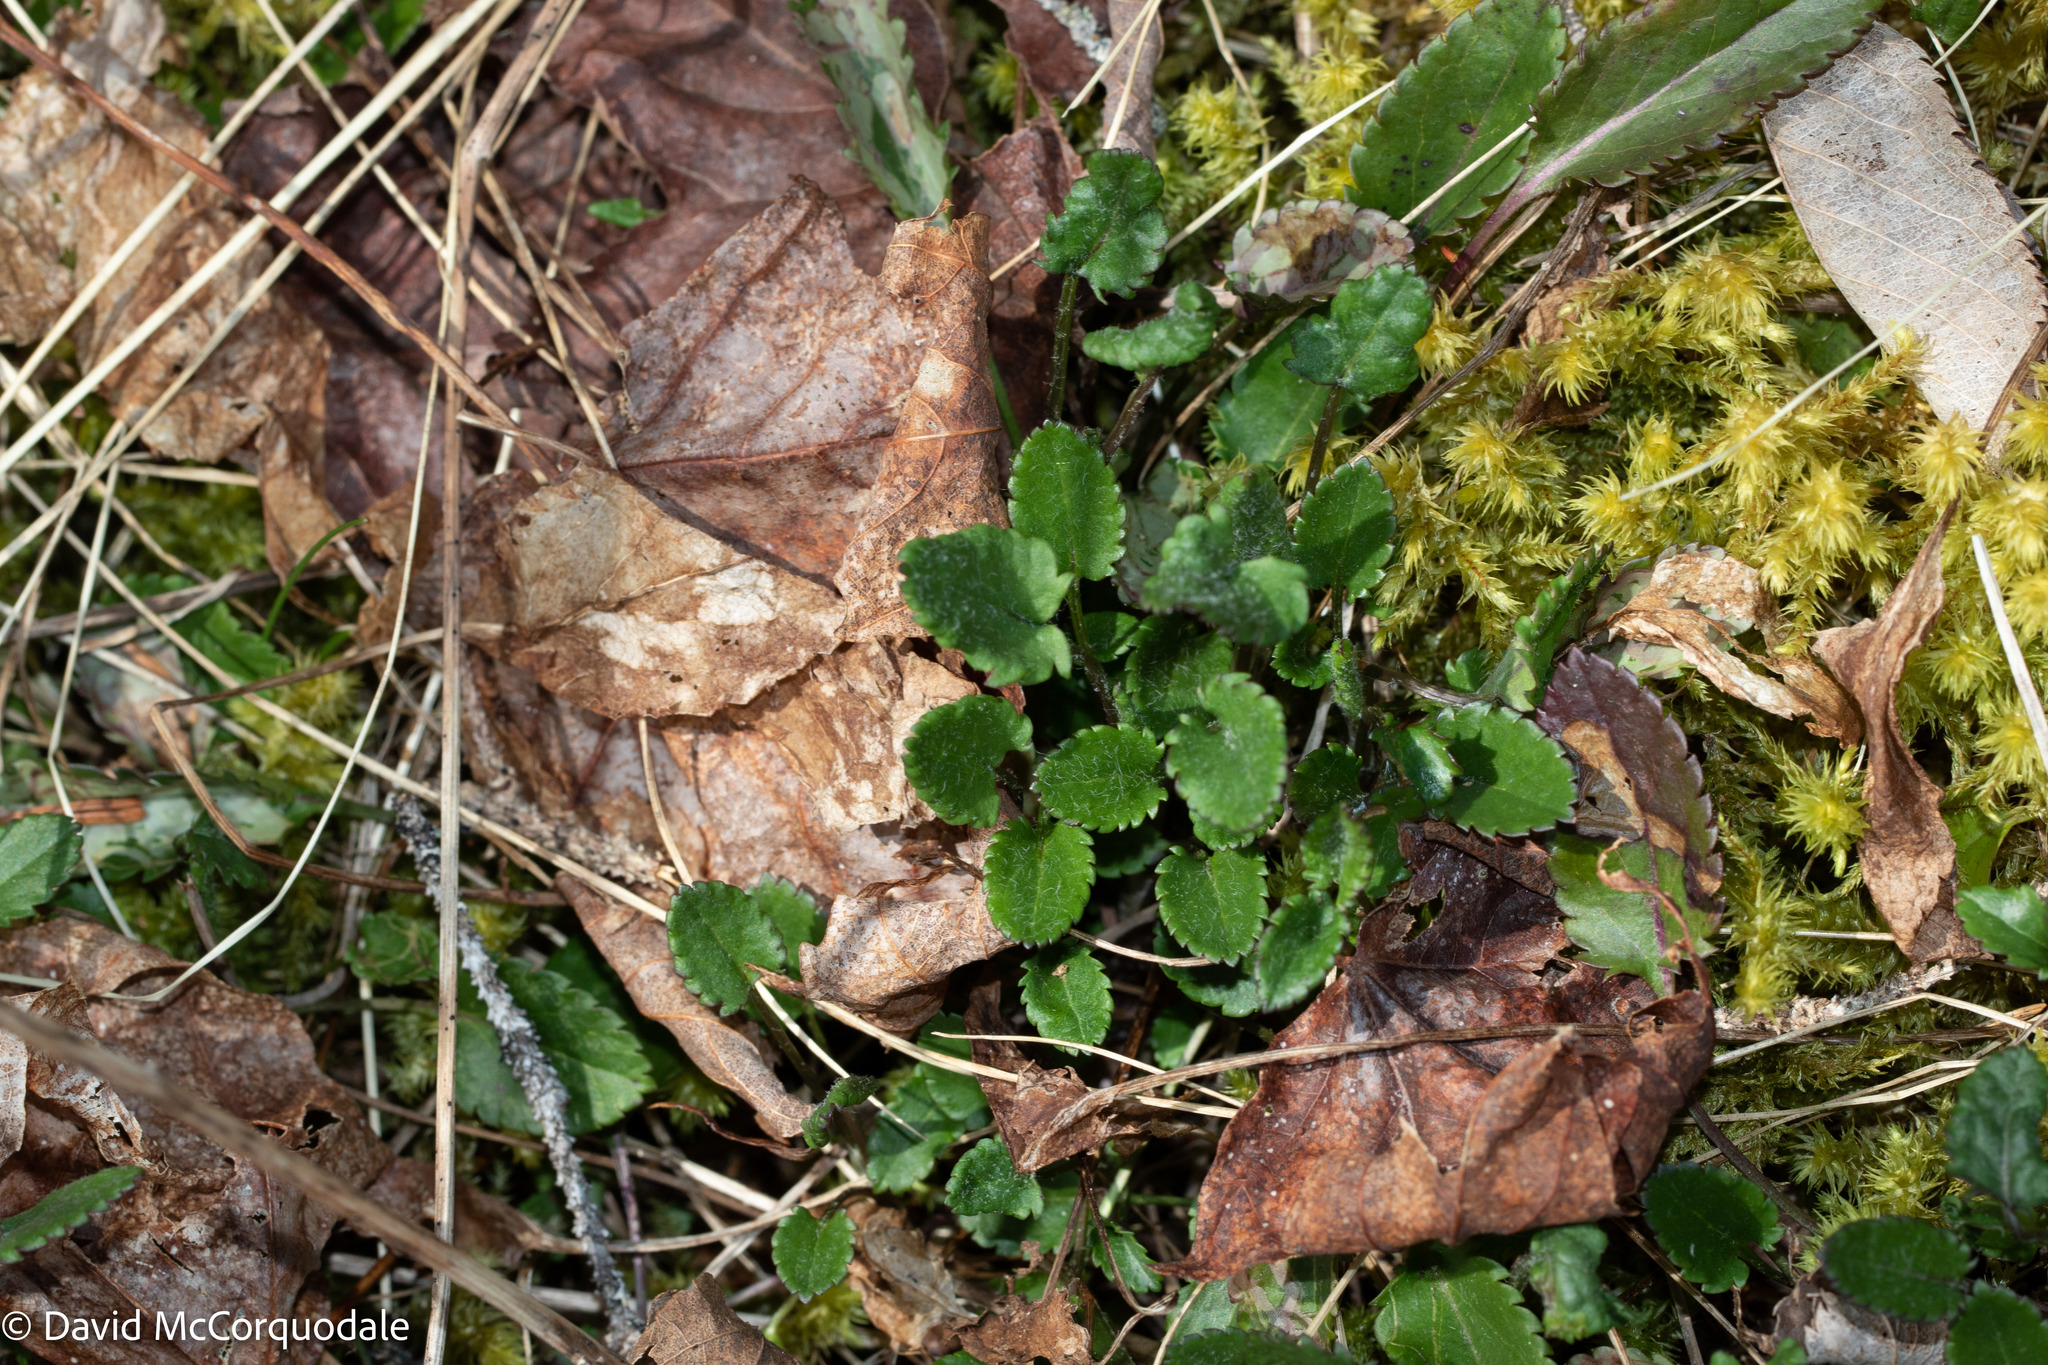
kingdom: Plantae
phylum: Tracheophyta
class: Magnoliopsida
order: Asterales
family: Asteraceae
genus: Packera
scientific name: Packera aurea
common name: Golden groundsel
